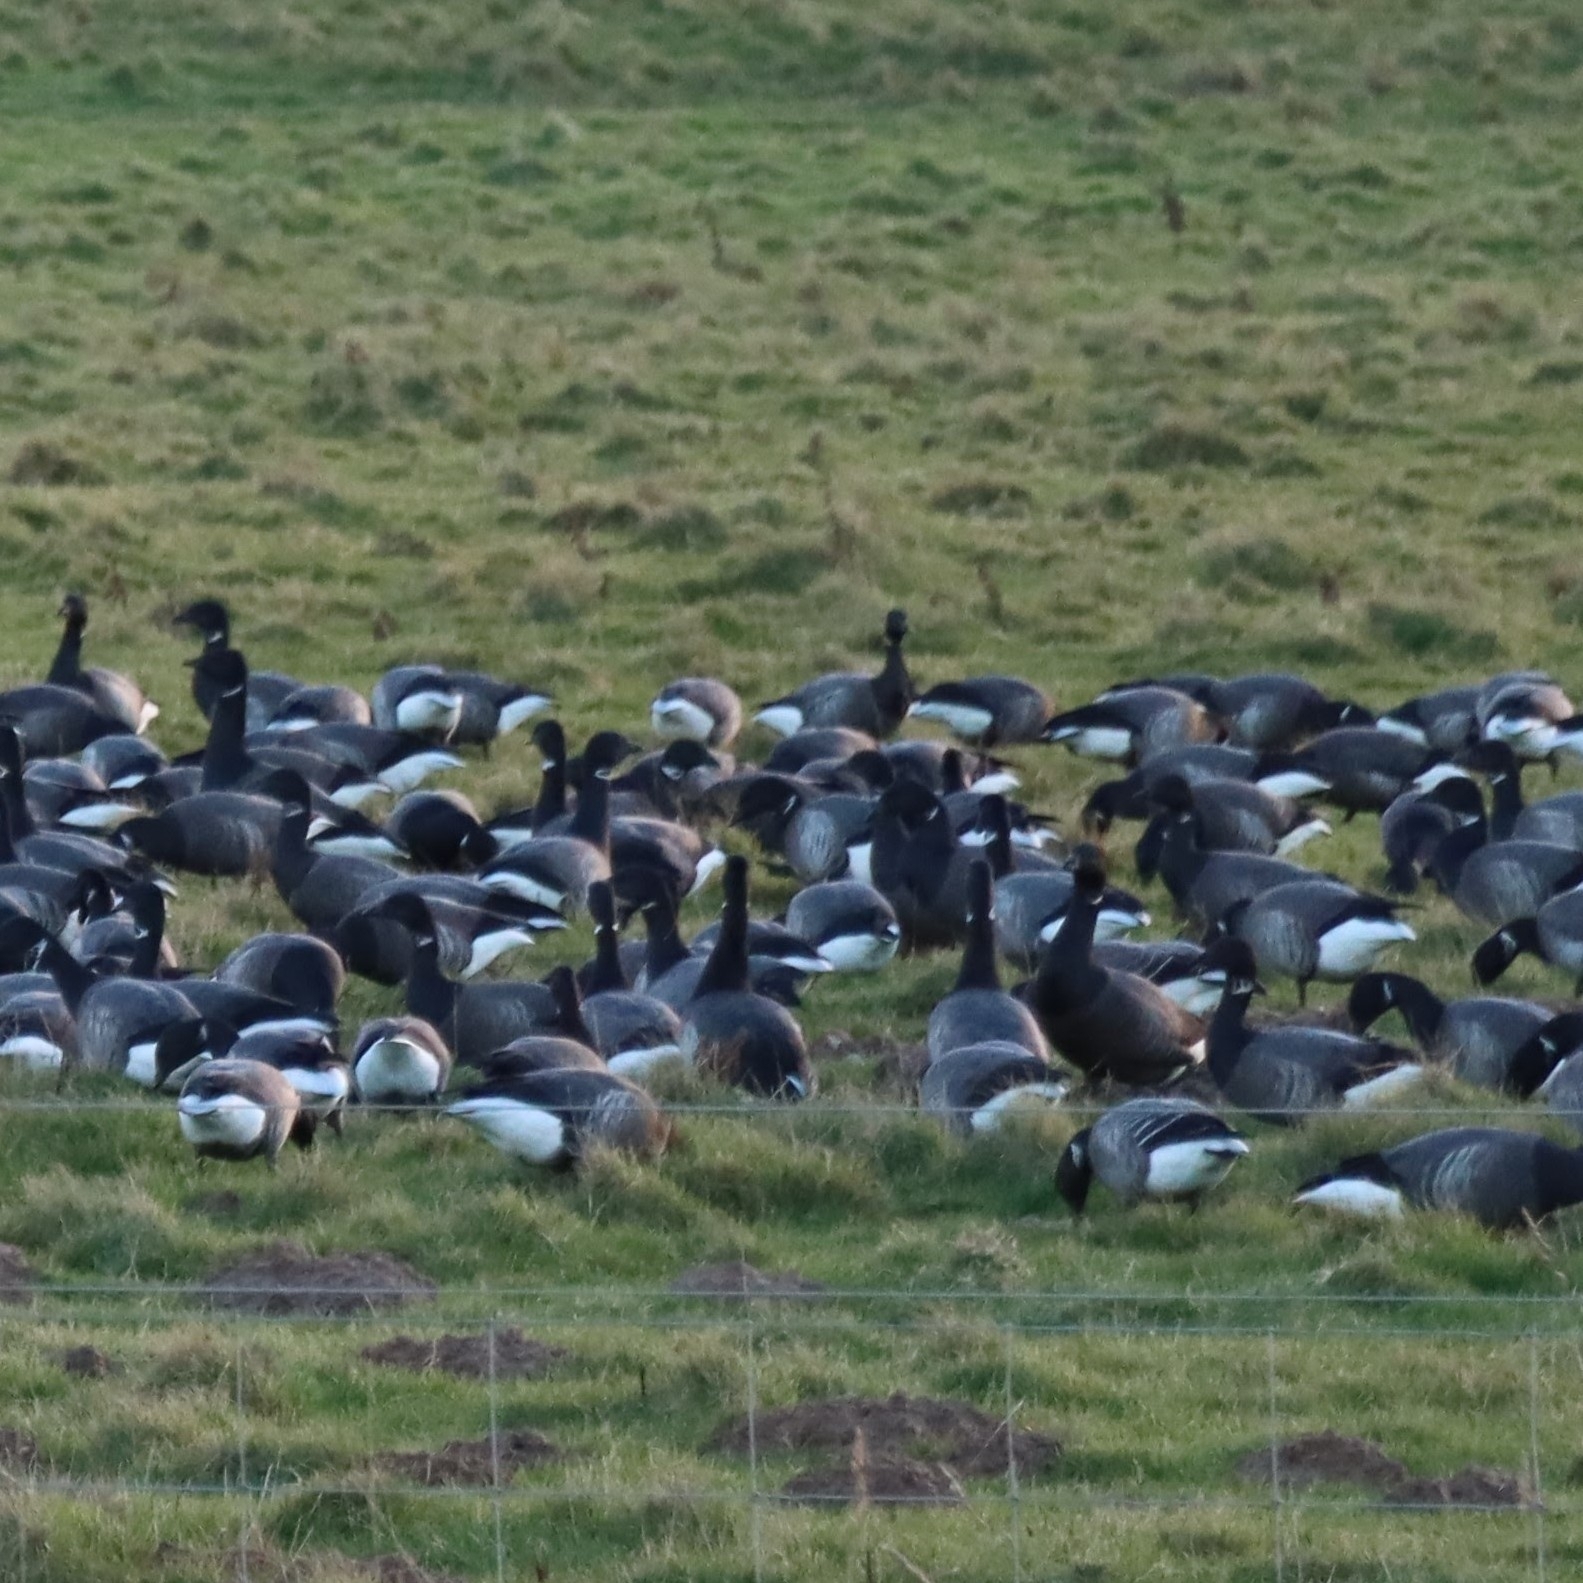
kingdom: Animalia
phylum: Chordata
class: Aves
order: Anseriformes
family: Anatidae
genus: Branta
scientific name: Branta bernicla
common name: Brant goose
